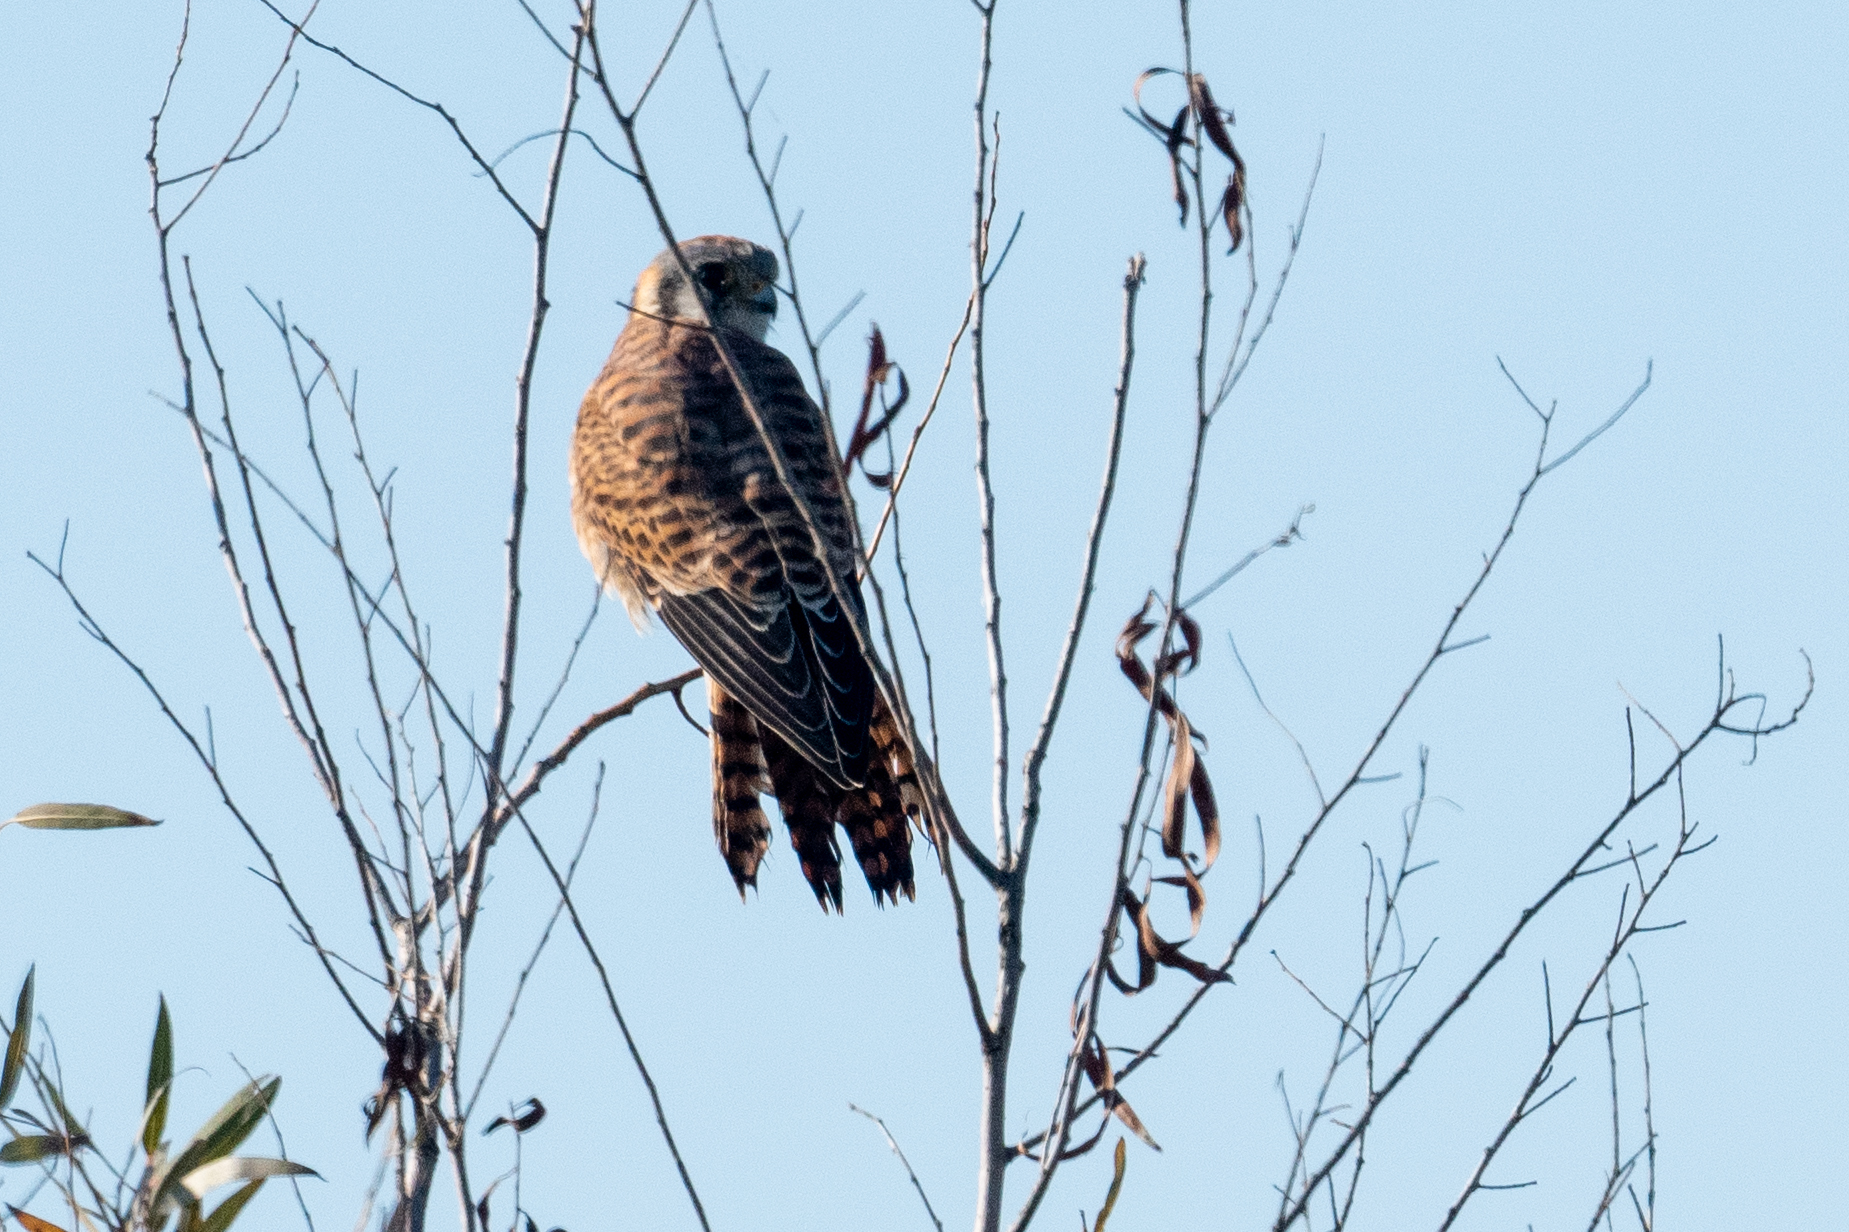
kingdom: Animalia
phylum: Chordata
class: Aves
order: Falconiformes
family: Falconidae
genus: Falco
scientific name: Falco sparverius
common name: American kestrel
